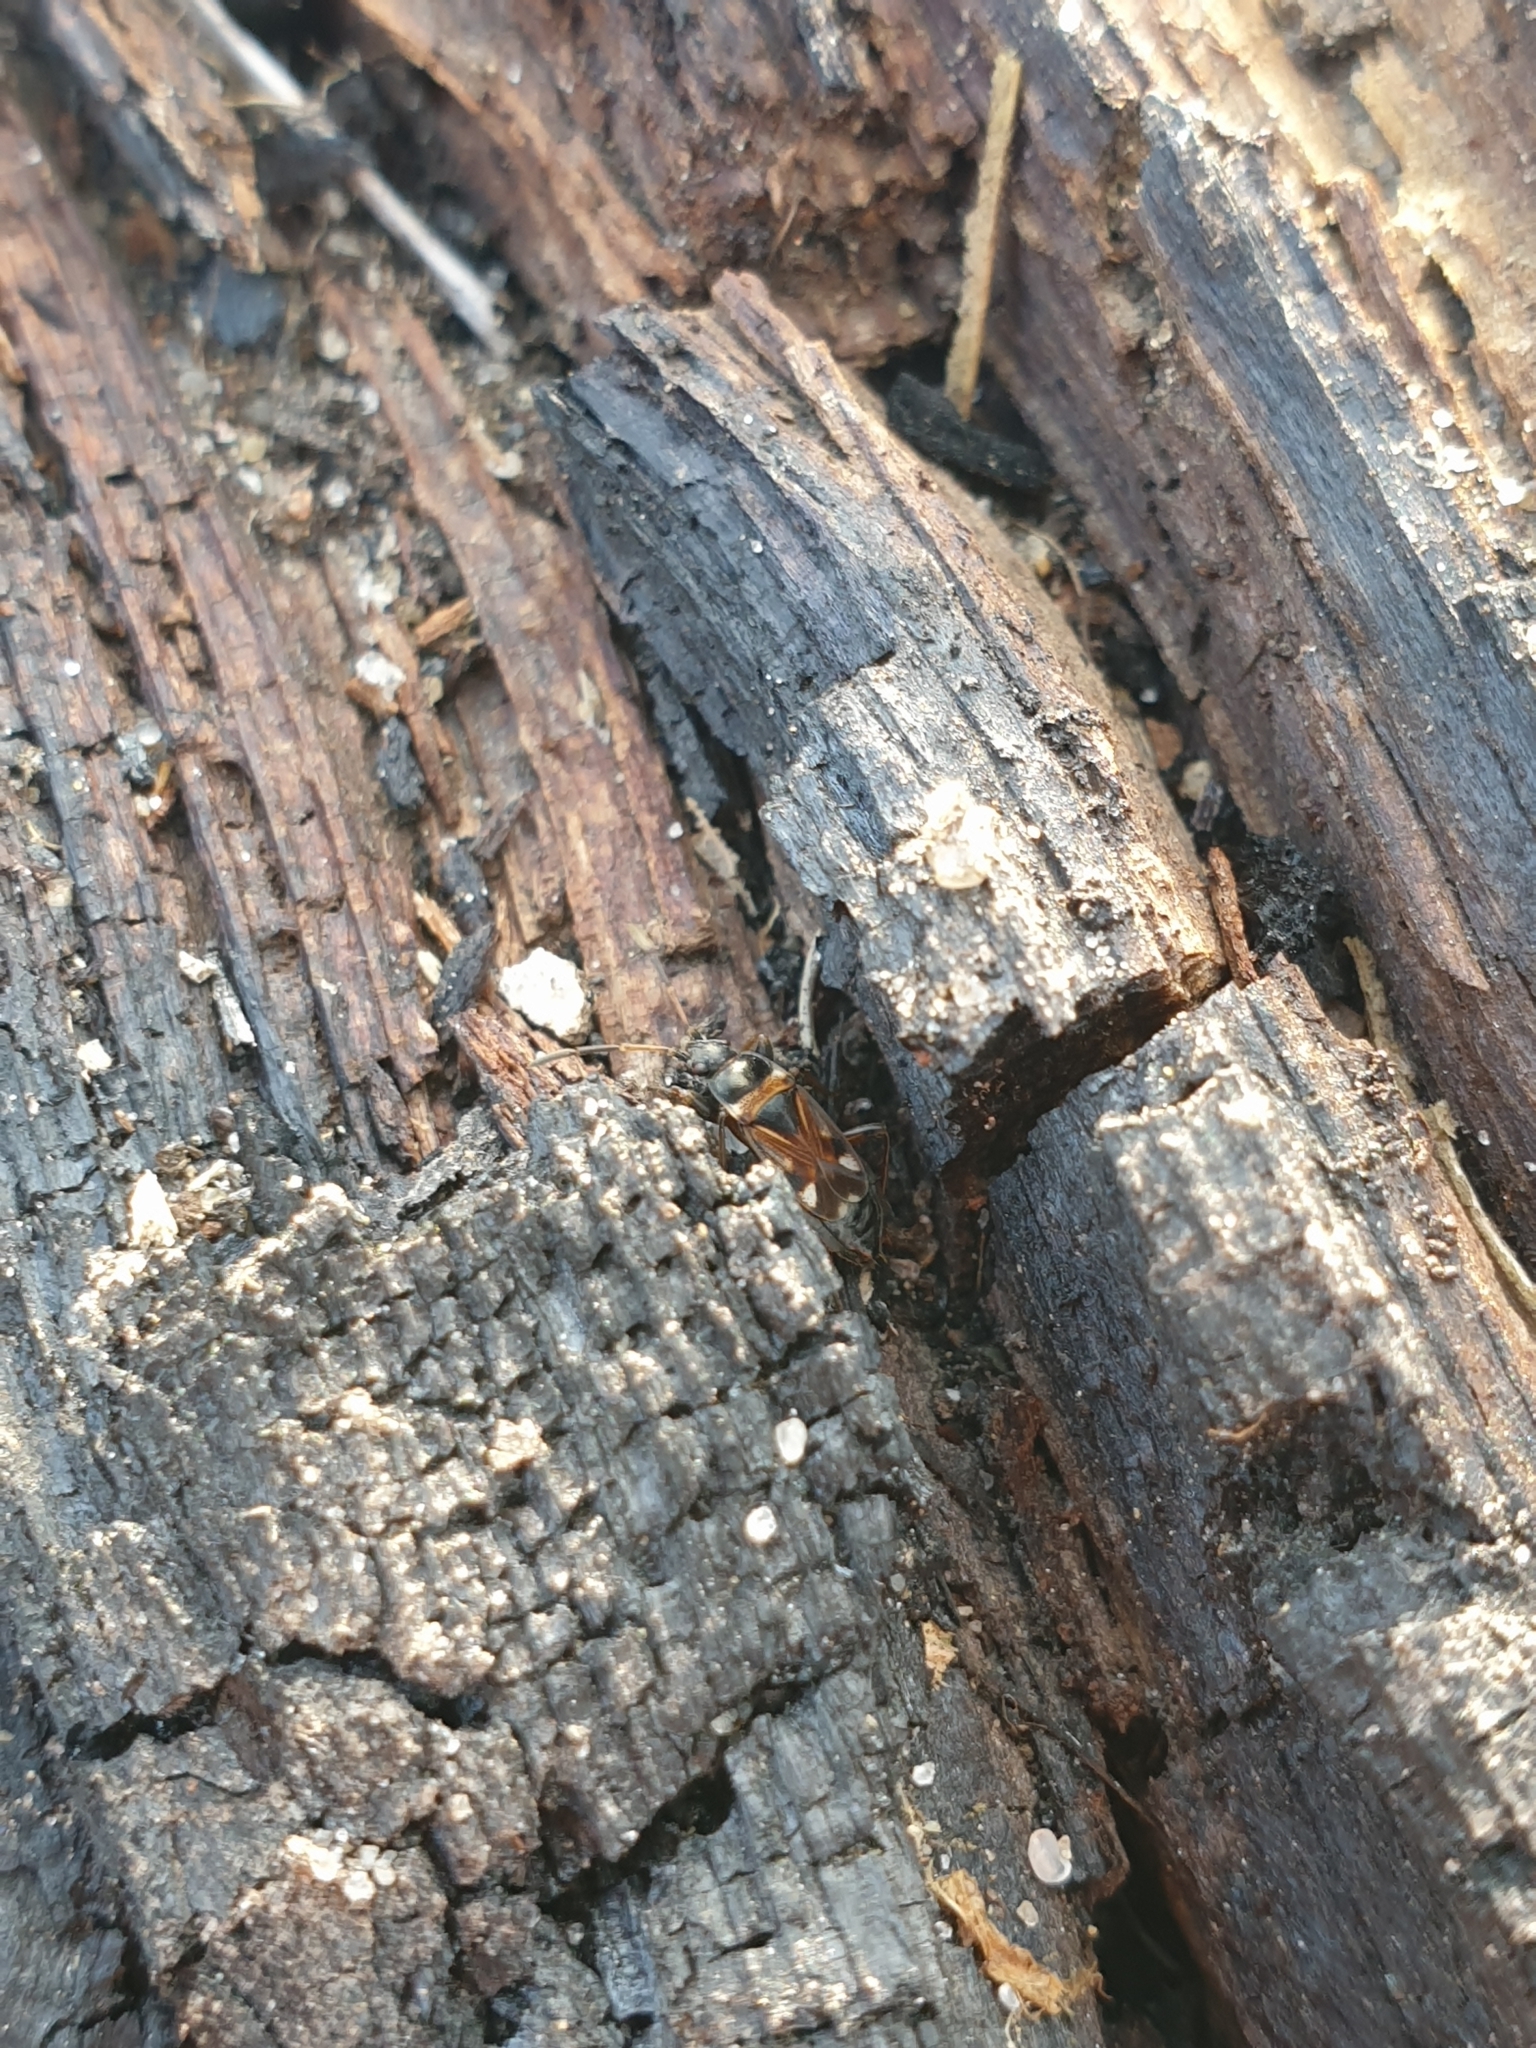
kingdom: Animalia
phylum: Arthropoda
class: Insecta
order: Hemiptera
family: Rhyparochromidae
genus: Raglius
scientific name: Raglius alboacuminatus
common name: Dirt-colored seed bug
